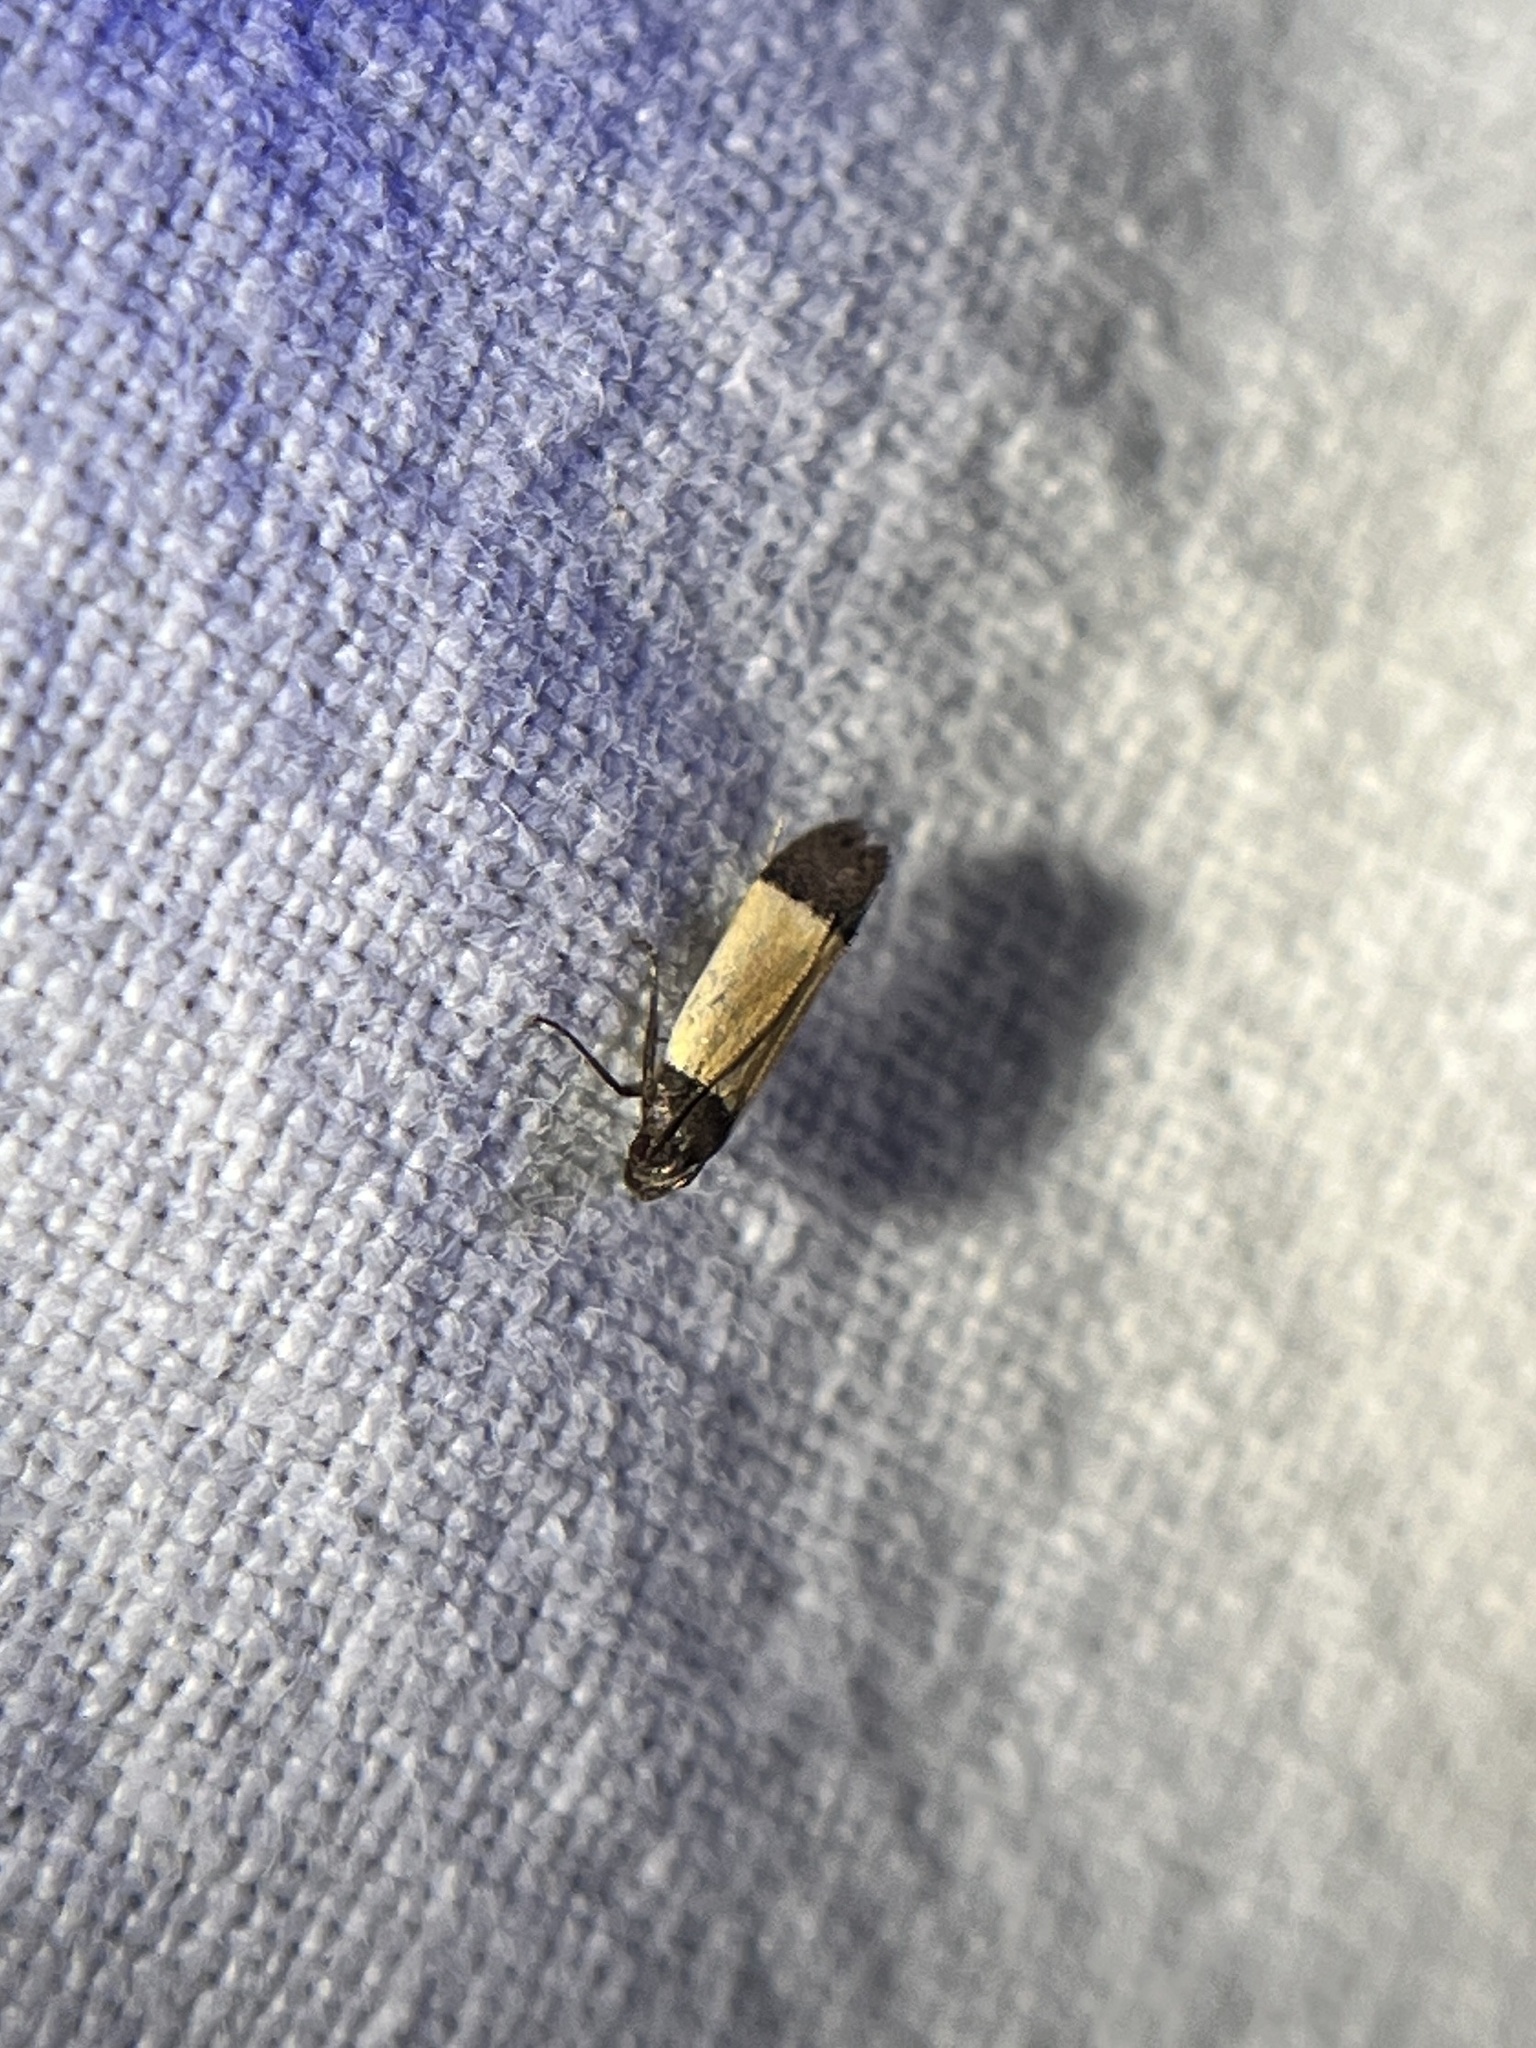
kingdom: Animalia
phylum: Arthropoda
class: Insecta
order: Lepidoptera
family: Gelechiidae
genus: Anacampsis
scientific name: Anacampsis coverdalella
